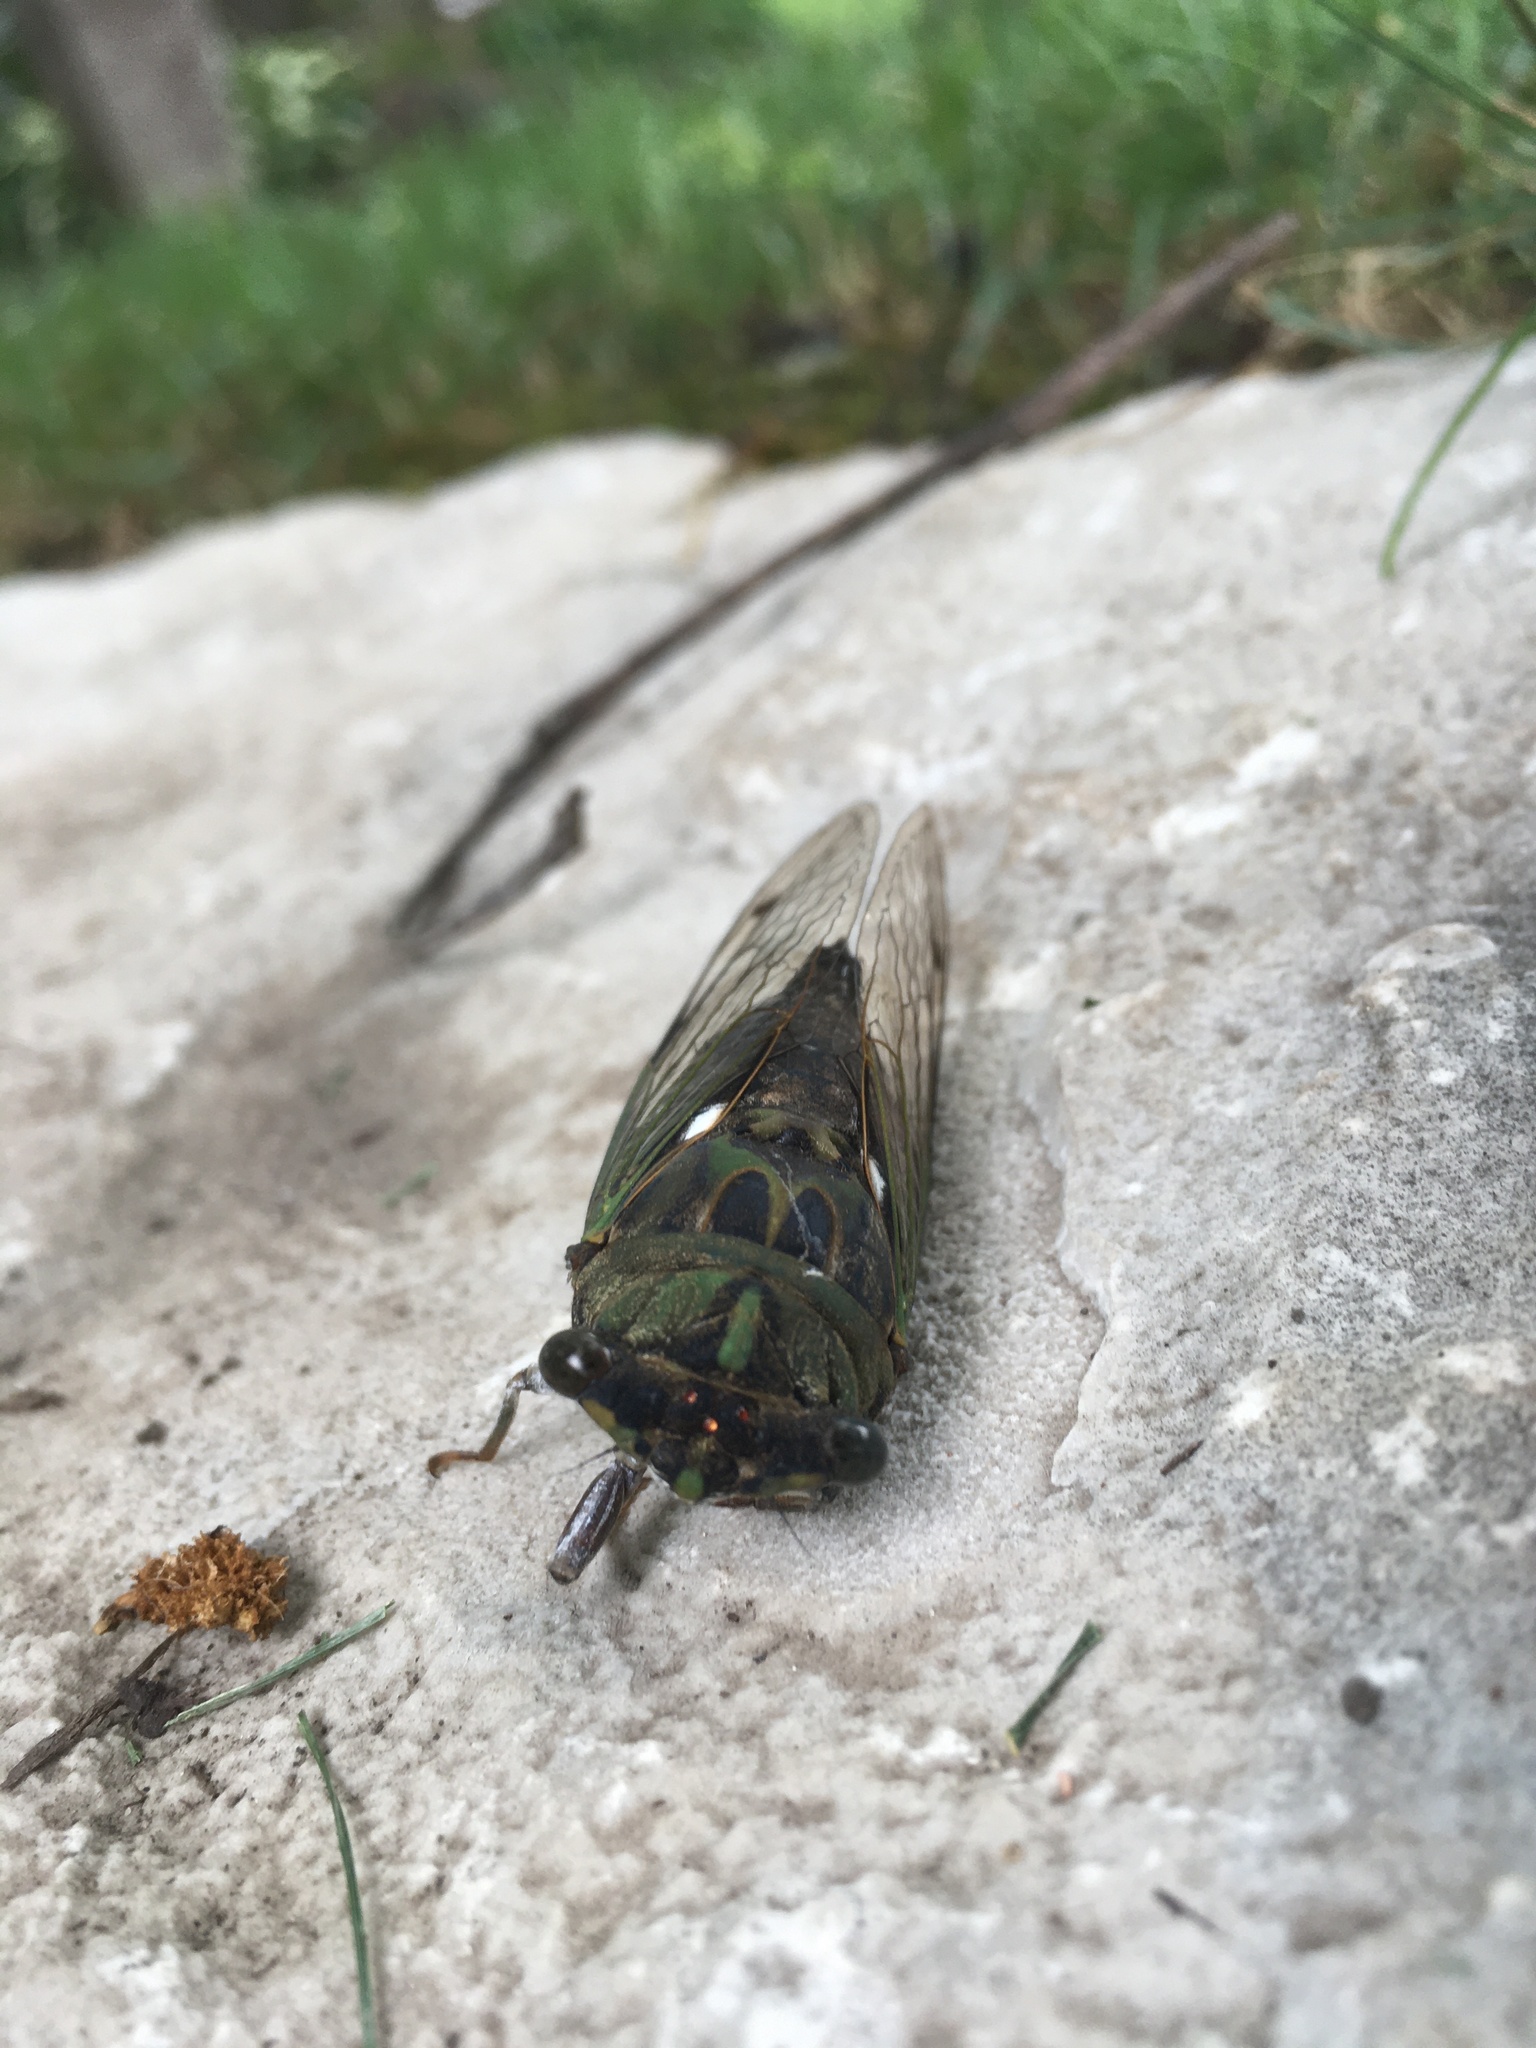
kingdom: Animalia
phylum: Arthropoda
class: Insecta
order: Hemiptera
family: Cicadidae
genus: Neotibicen
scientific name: Neotibicen pruinosus
